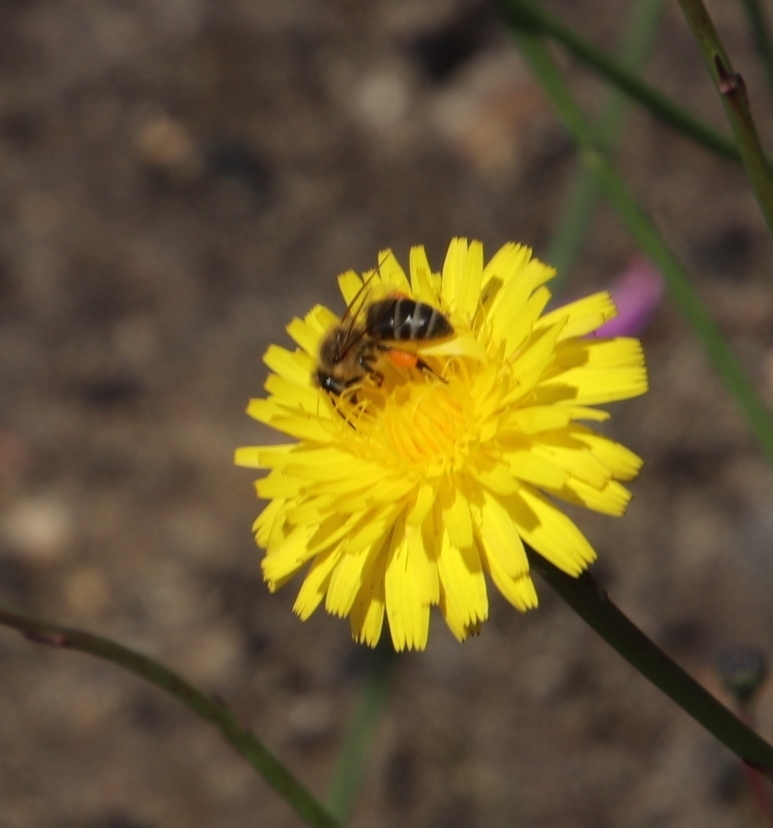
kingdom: Animalia
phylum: Arthropoda
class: Insecta
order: Hymenoptera
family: Apidae
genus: Apis
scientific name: Apis mellifera
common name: Honey bee
